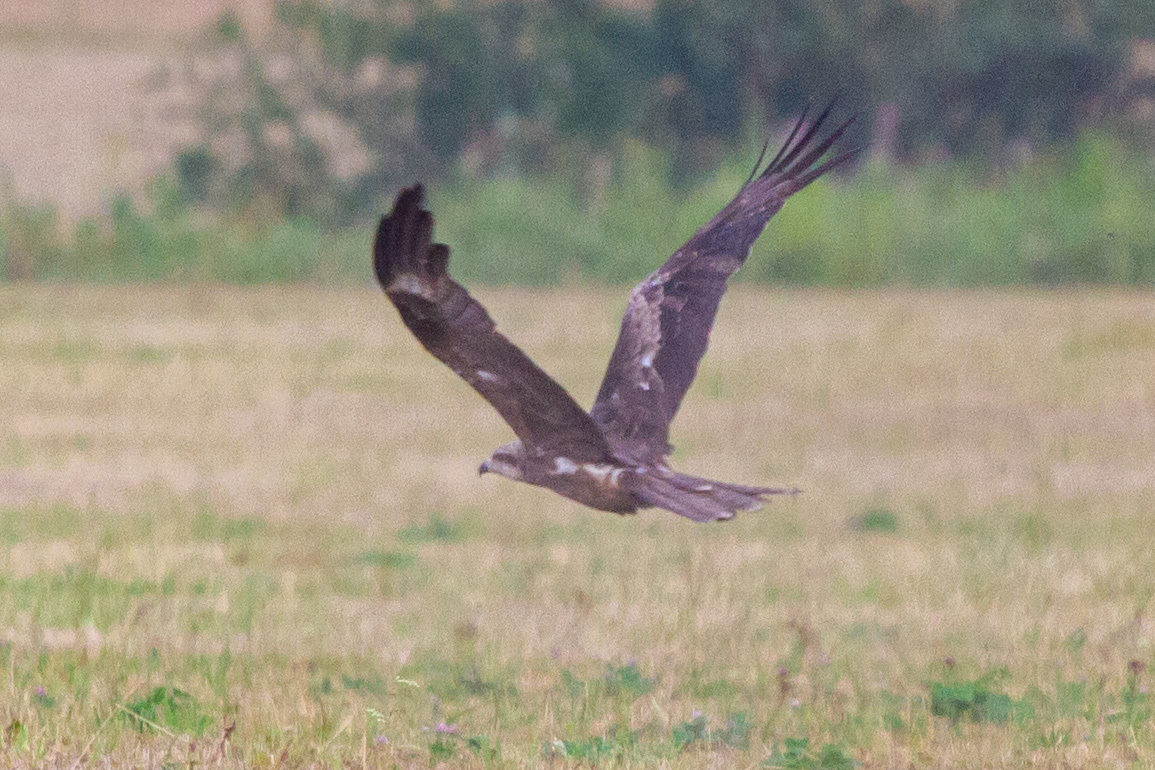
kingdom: Animalia
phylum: Chordata
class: Aves
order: Accipitriformes
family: Accipitridae
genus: Milvus
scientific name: Milvus migrans
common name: Black kite
